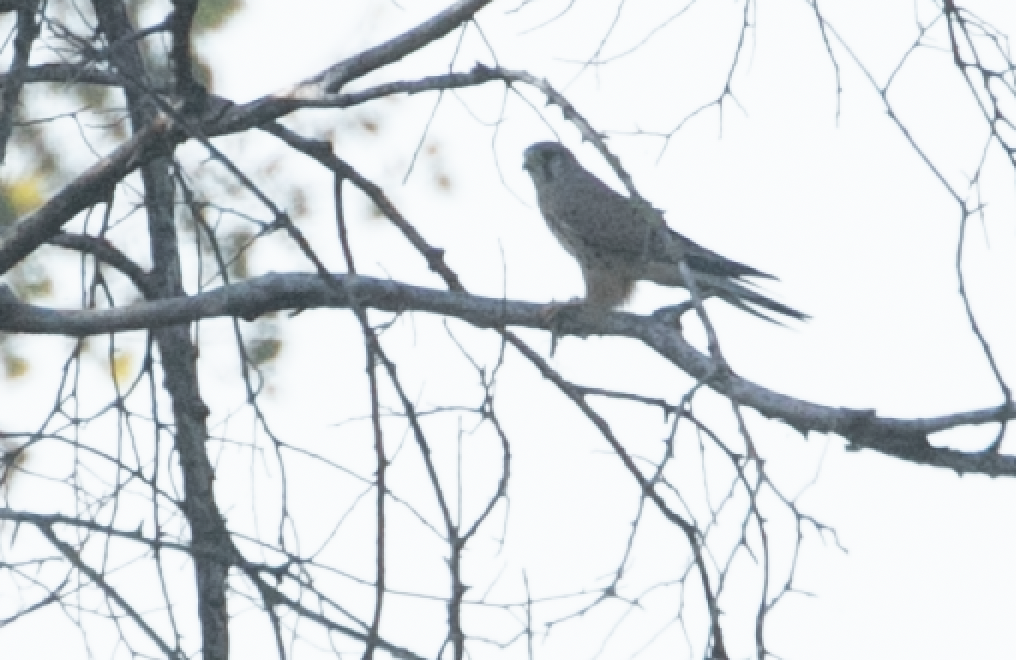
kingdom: Animalia
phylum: Chordata
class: Aves
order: Falconiformes
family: Falconidae
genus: Falco
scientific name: Falco tinnunculus
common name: Common kestrel
